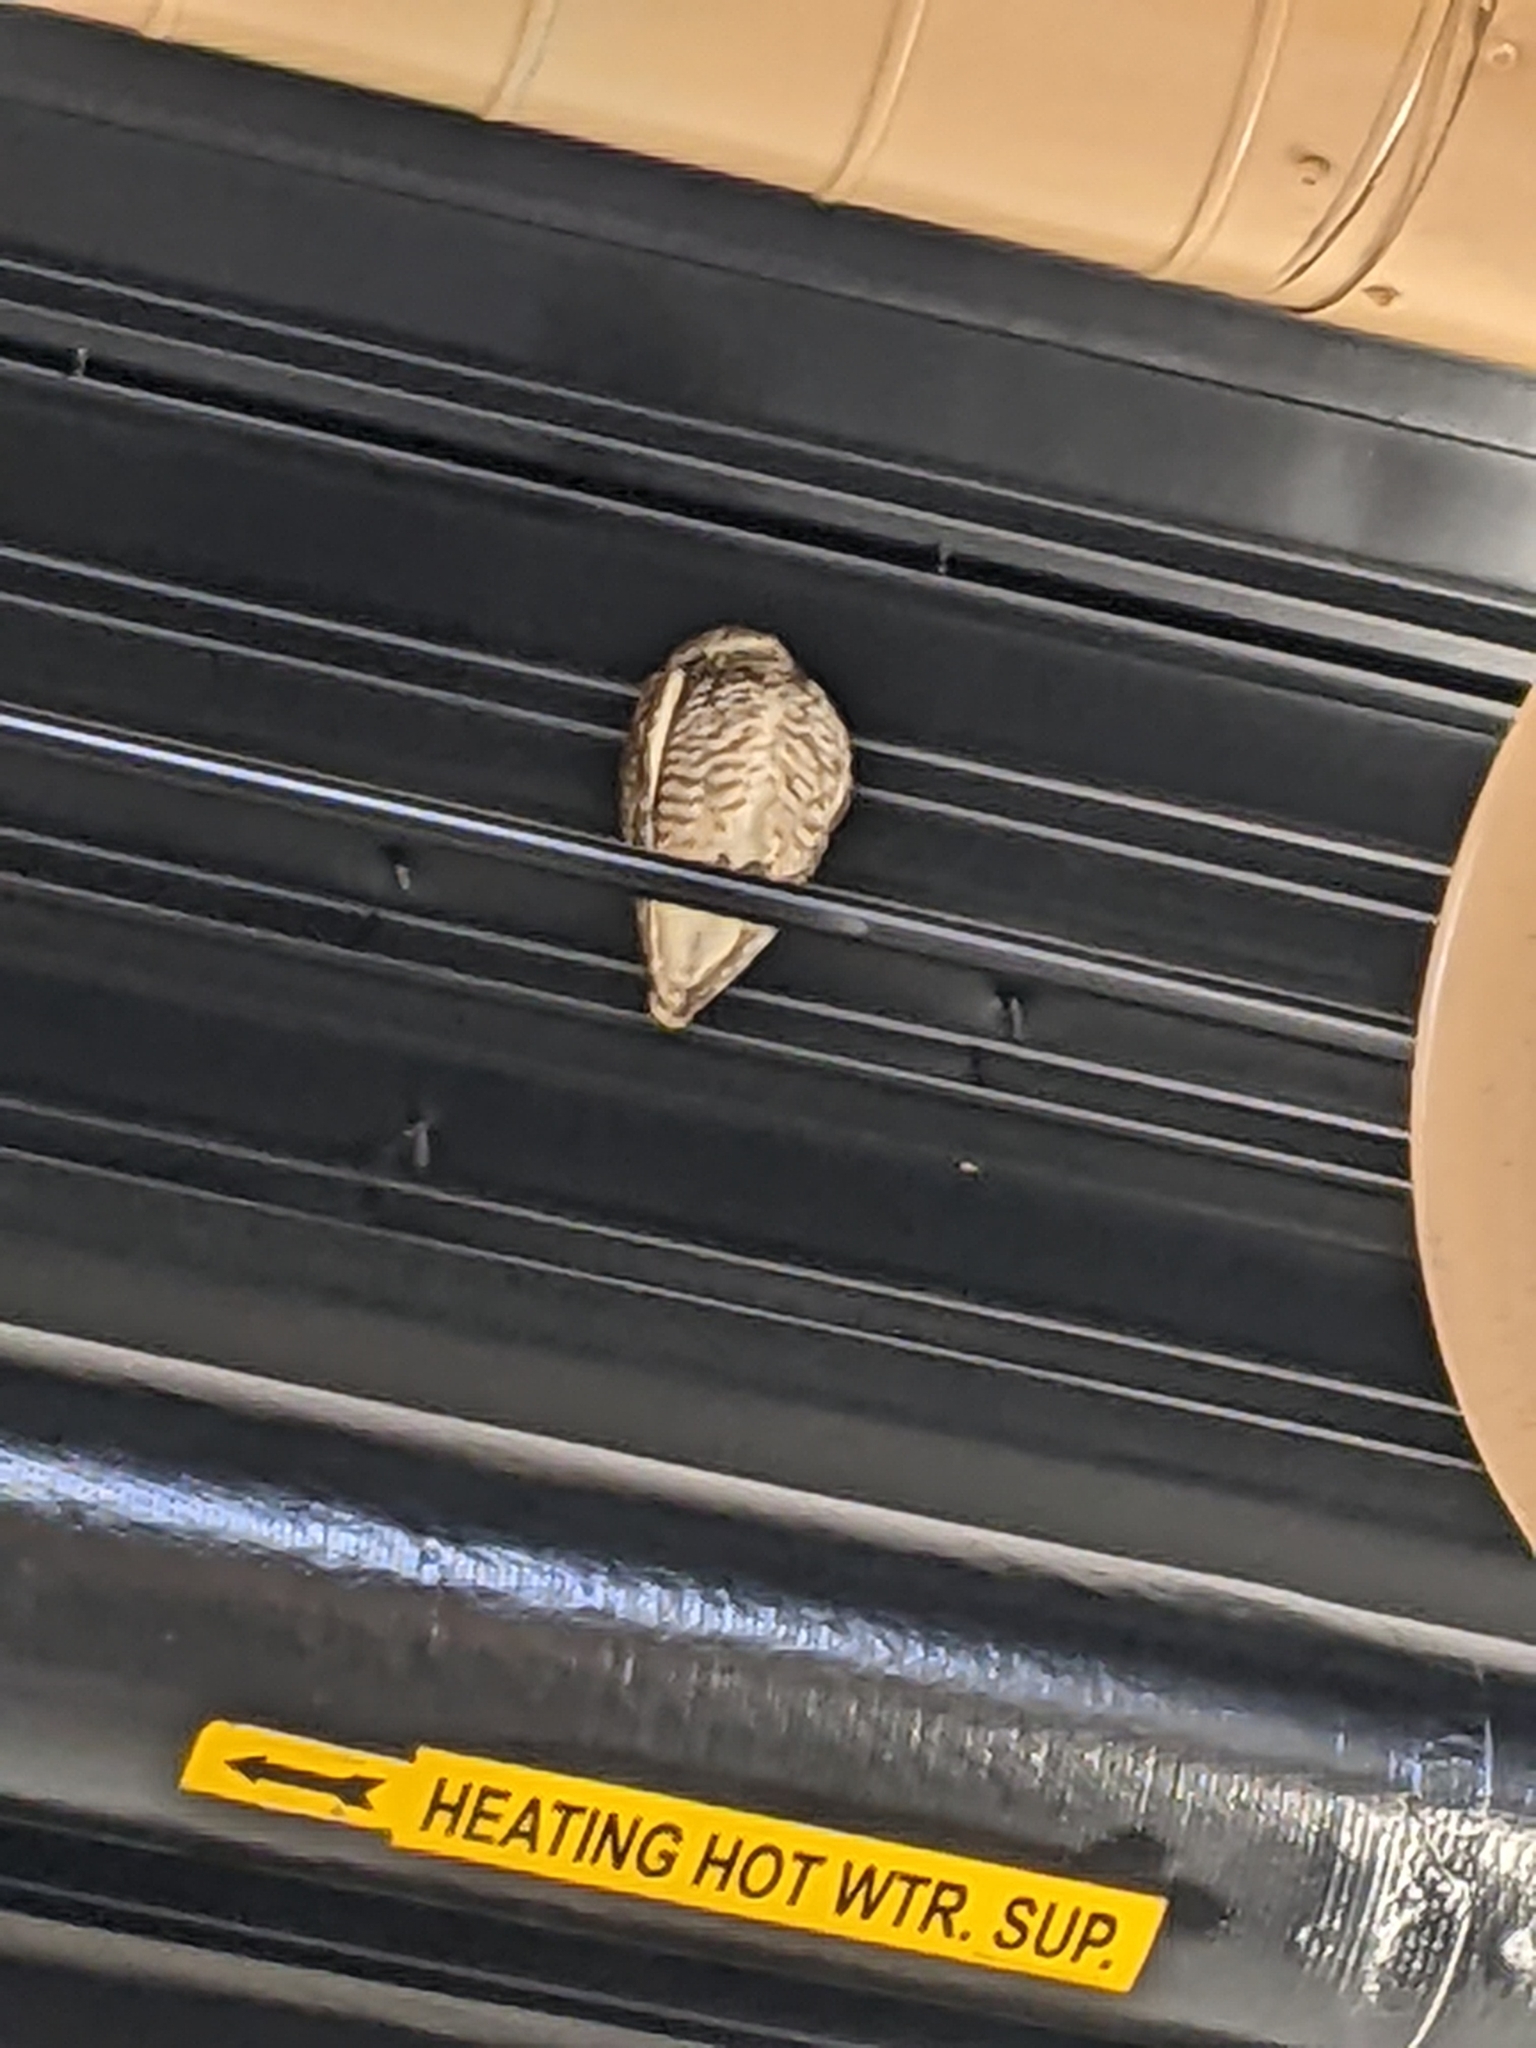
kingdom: Animalia
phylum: Chordata
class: Aves
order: Strigiformes
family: Strigidae
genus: Athene
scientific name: Athene cunicularia
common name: Burrowing owl
